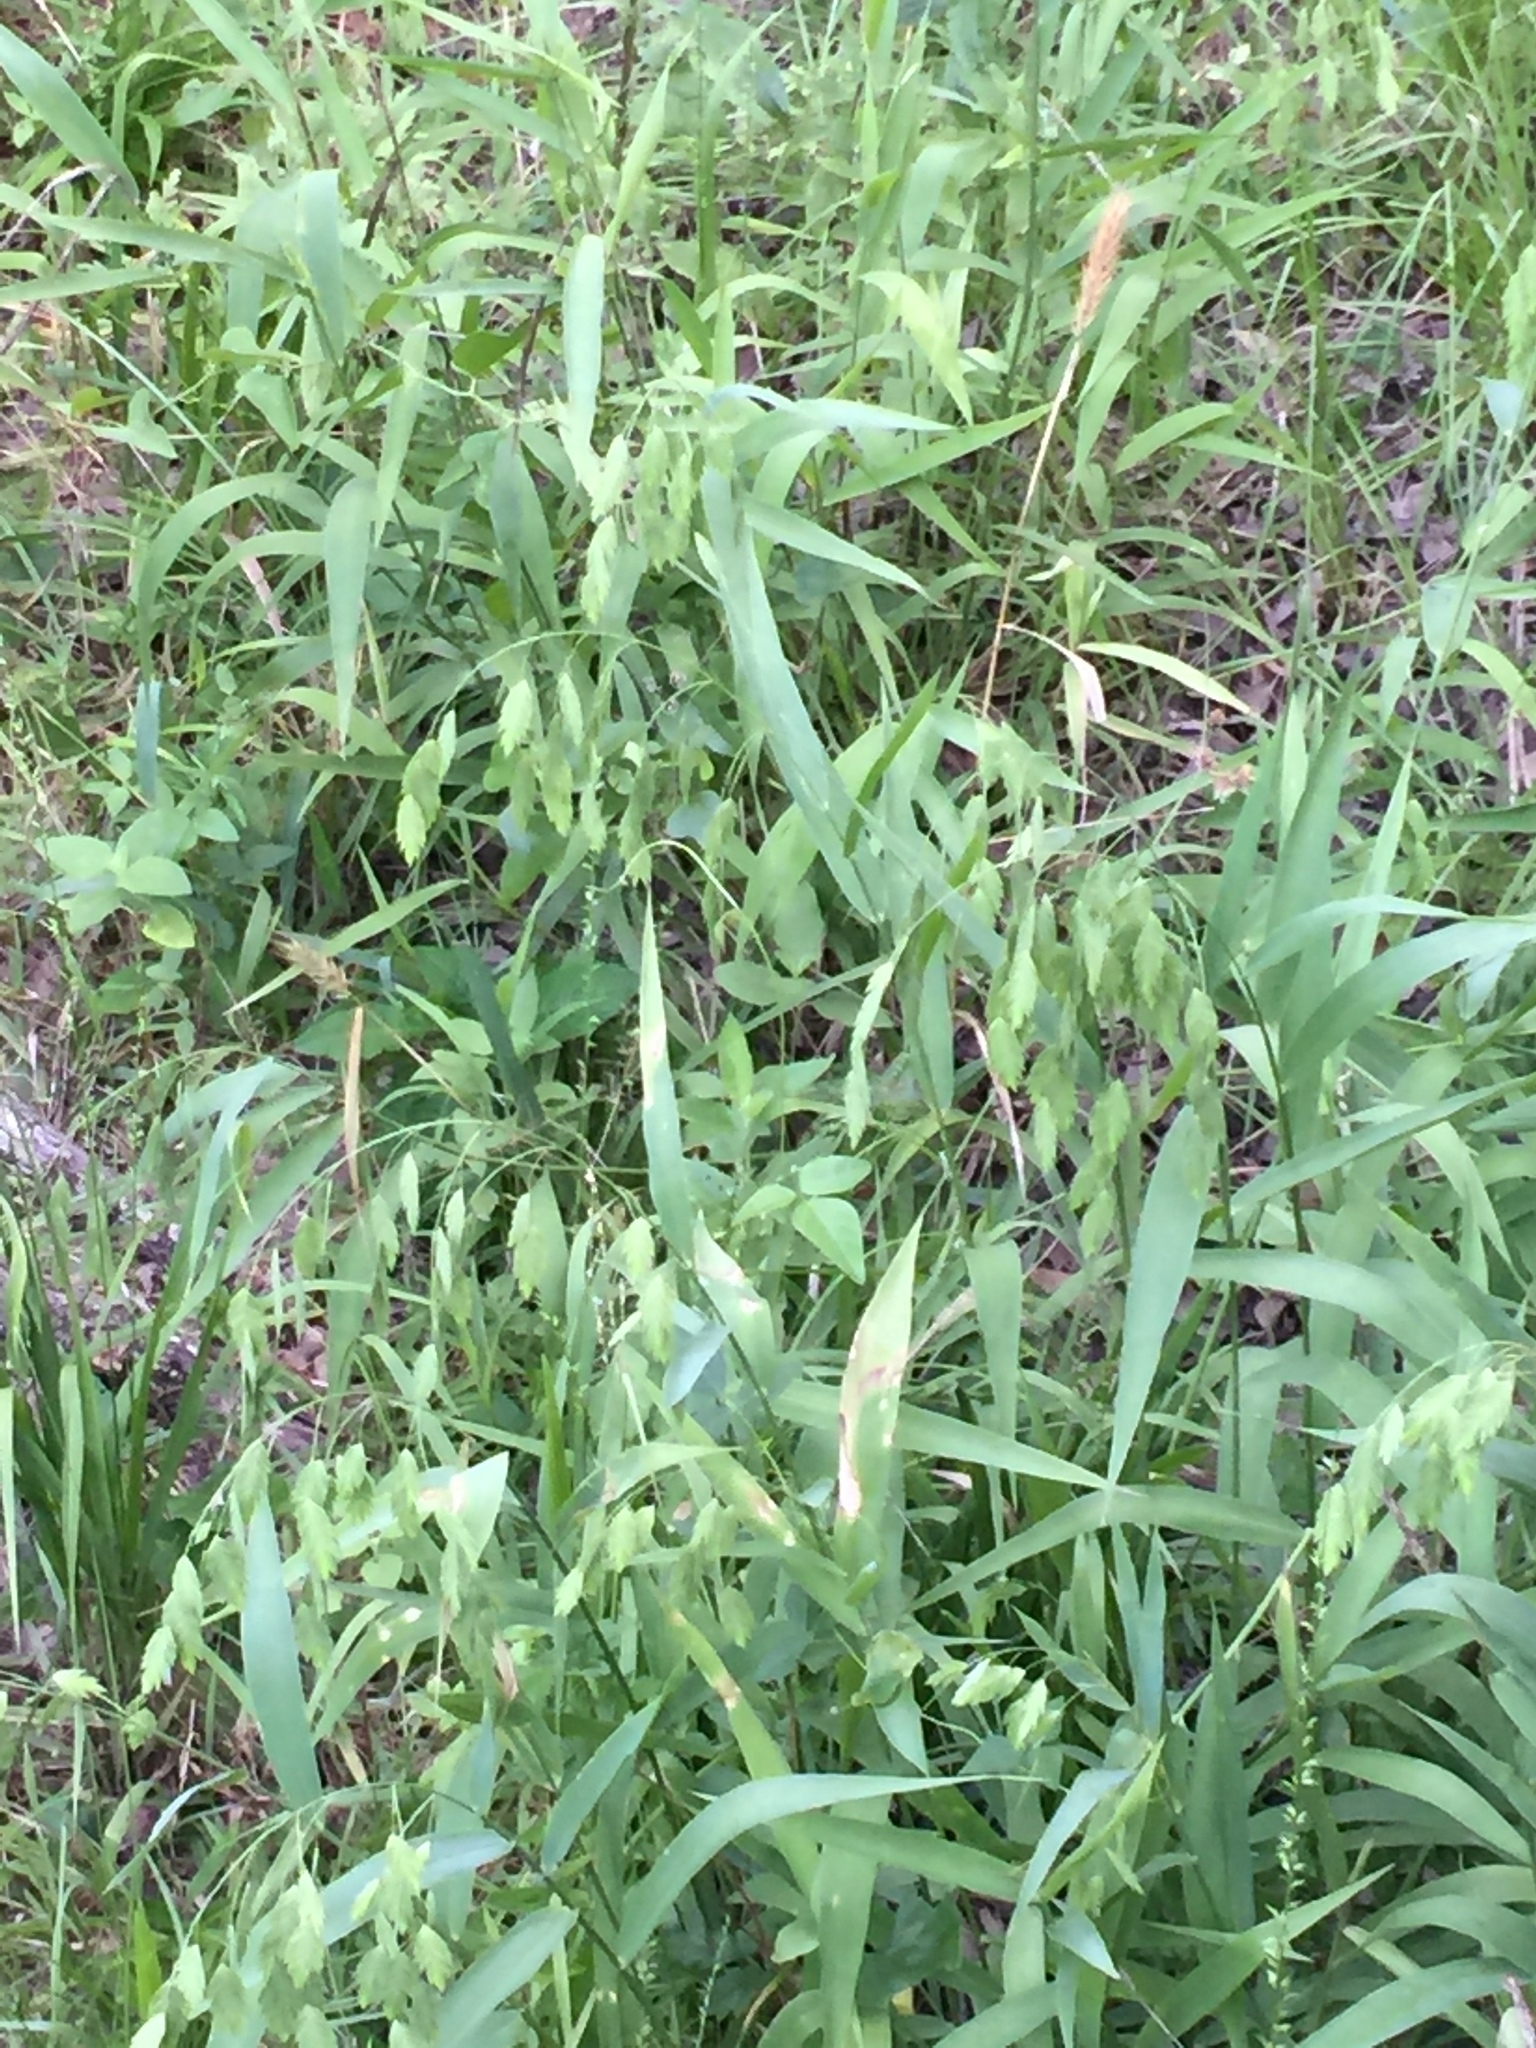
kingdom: Plantae
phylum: Tracheophyta
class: Liliopsida
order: Poales
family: Poaceae
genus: Chasmanthium
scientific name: Chasmanthium latifolium
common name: Broad-leaved chasmanthium
